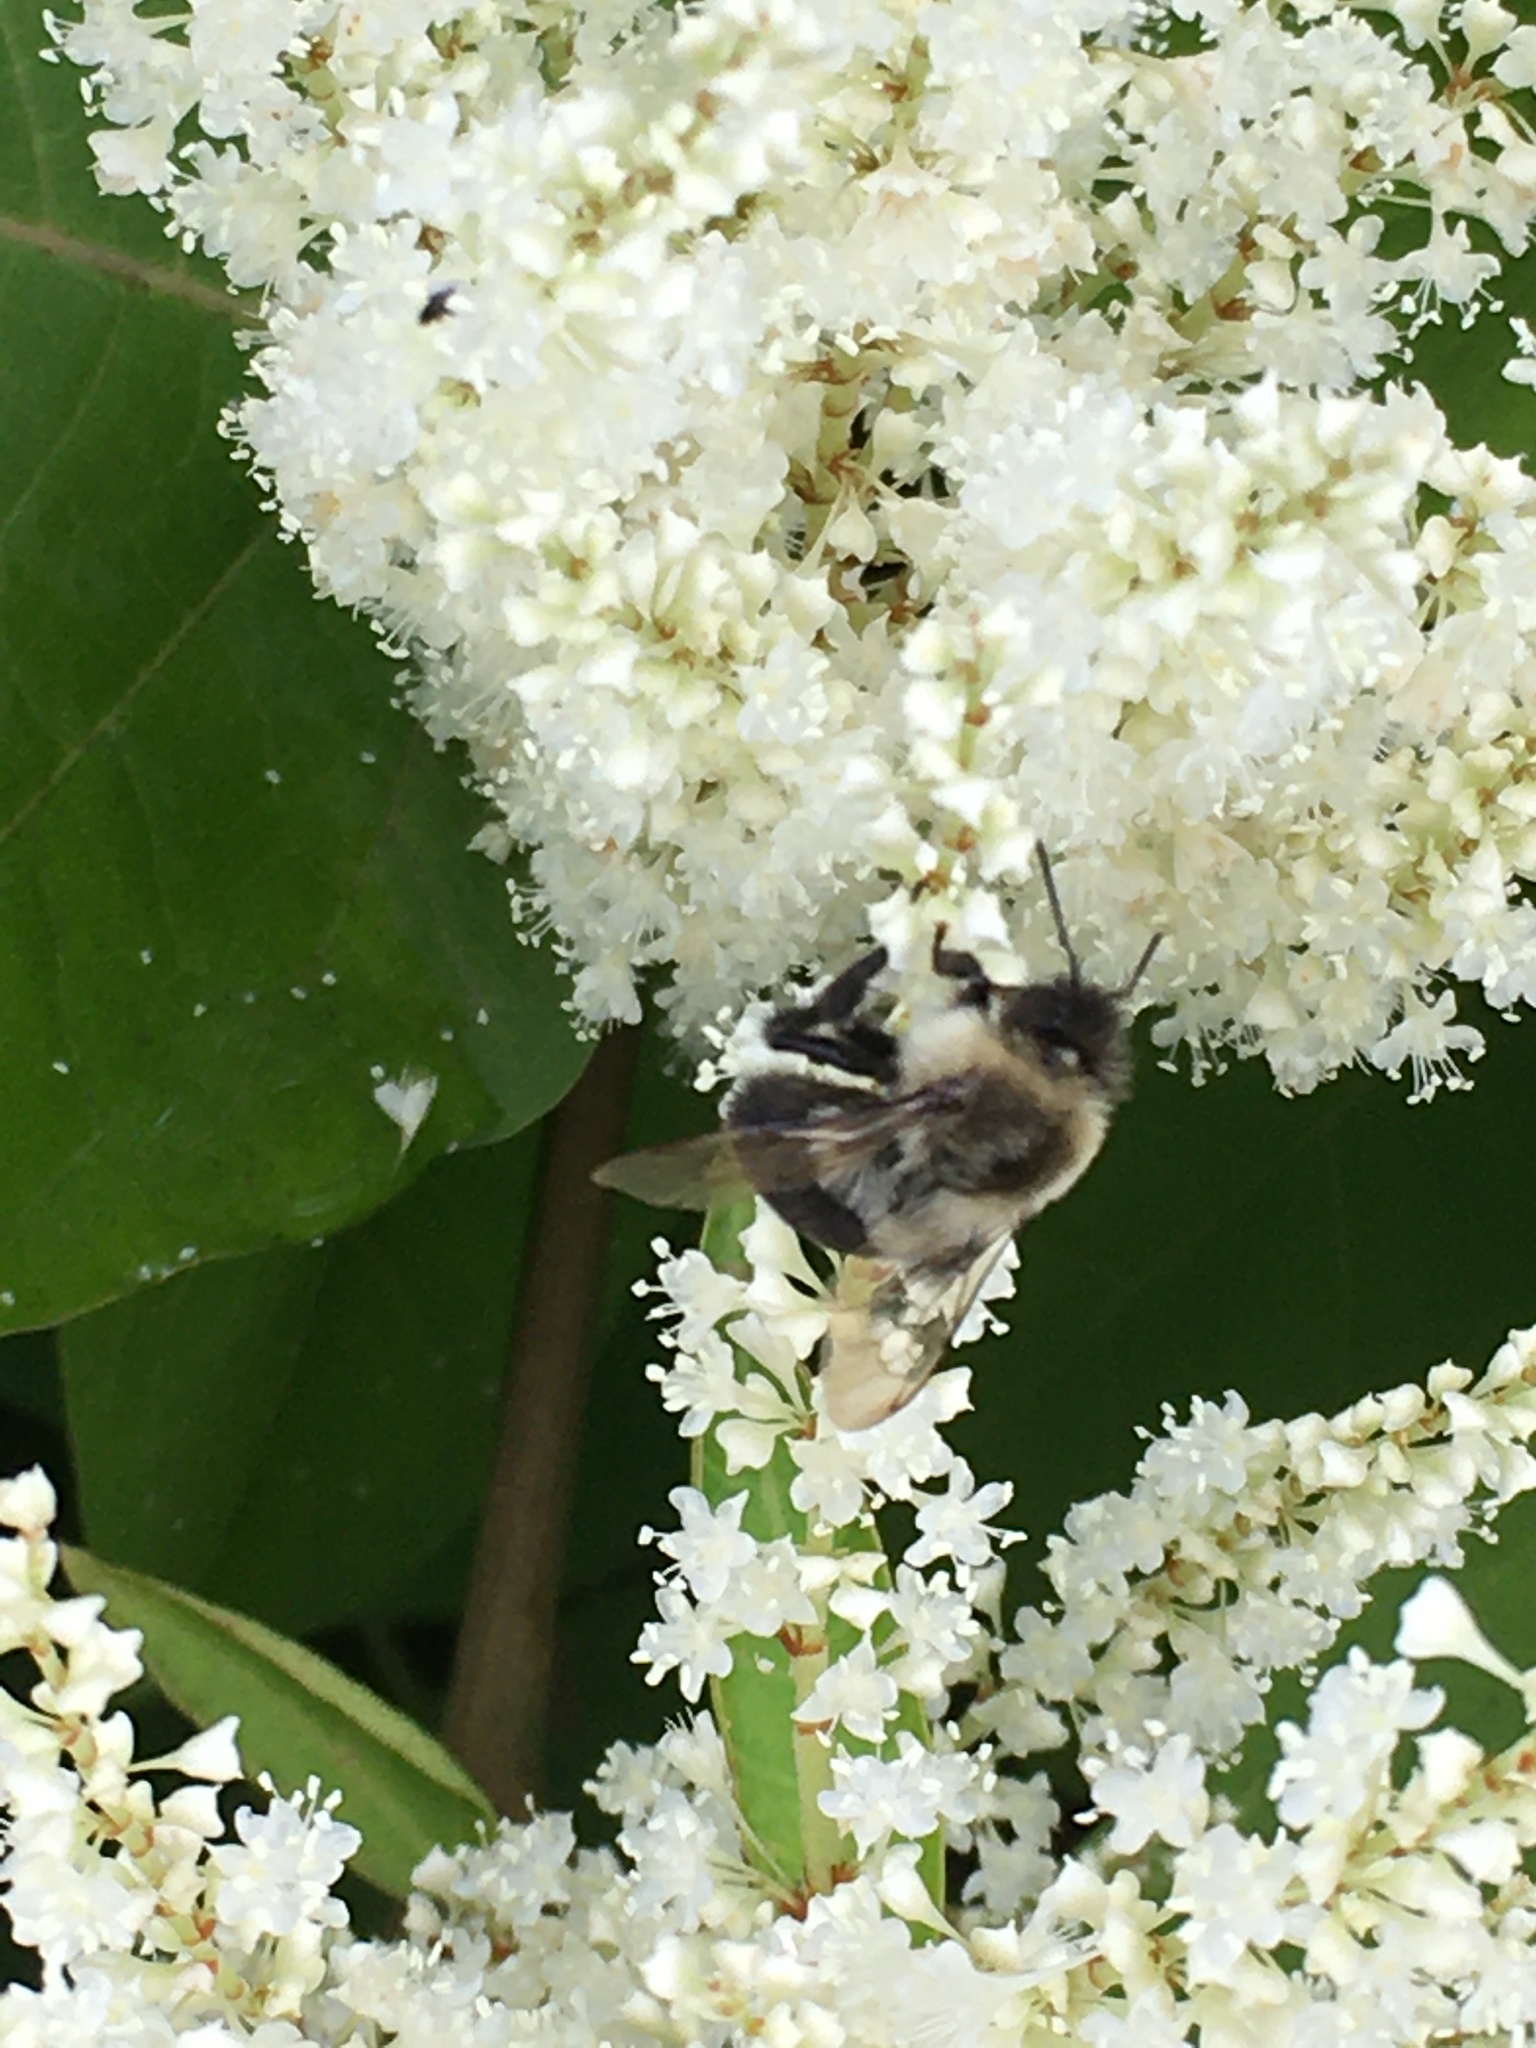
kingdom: Animalia
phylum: Arthropoda
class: Insecta
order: Hymenoptera
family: Apidae
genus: Bombus
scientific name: Bombus impatiens
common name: Common eastern bumble bee
